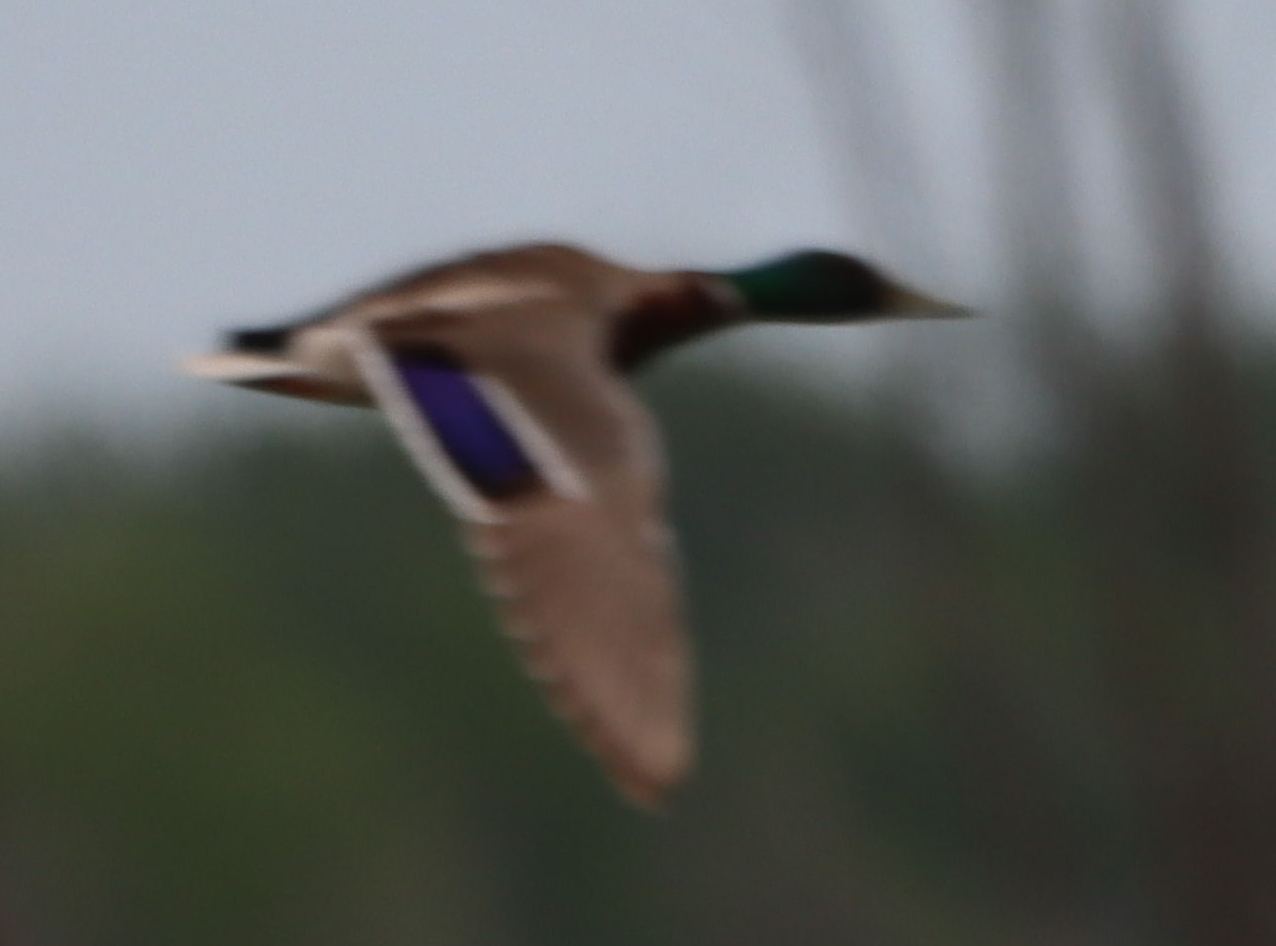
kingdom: Animalia
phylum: Chordata
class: Aves
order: Anseriformes
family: Anatidae
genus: Anas
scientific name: Anas platyrhynchos
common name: Mallard
